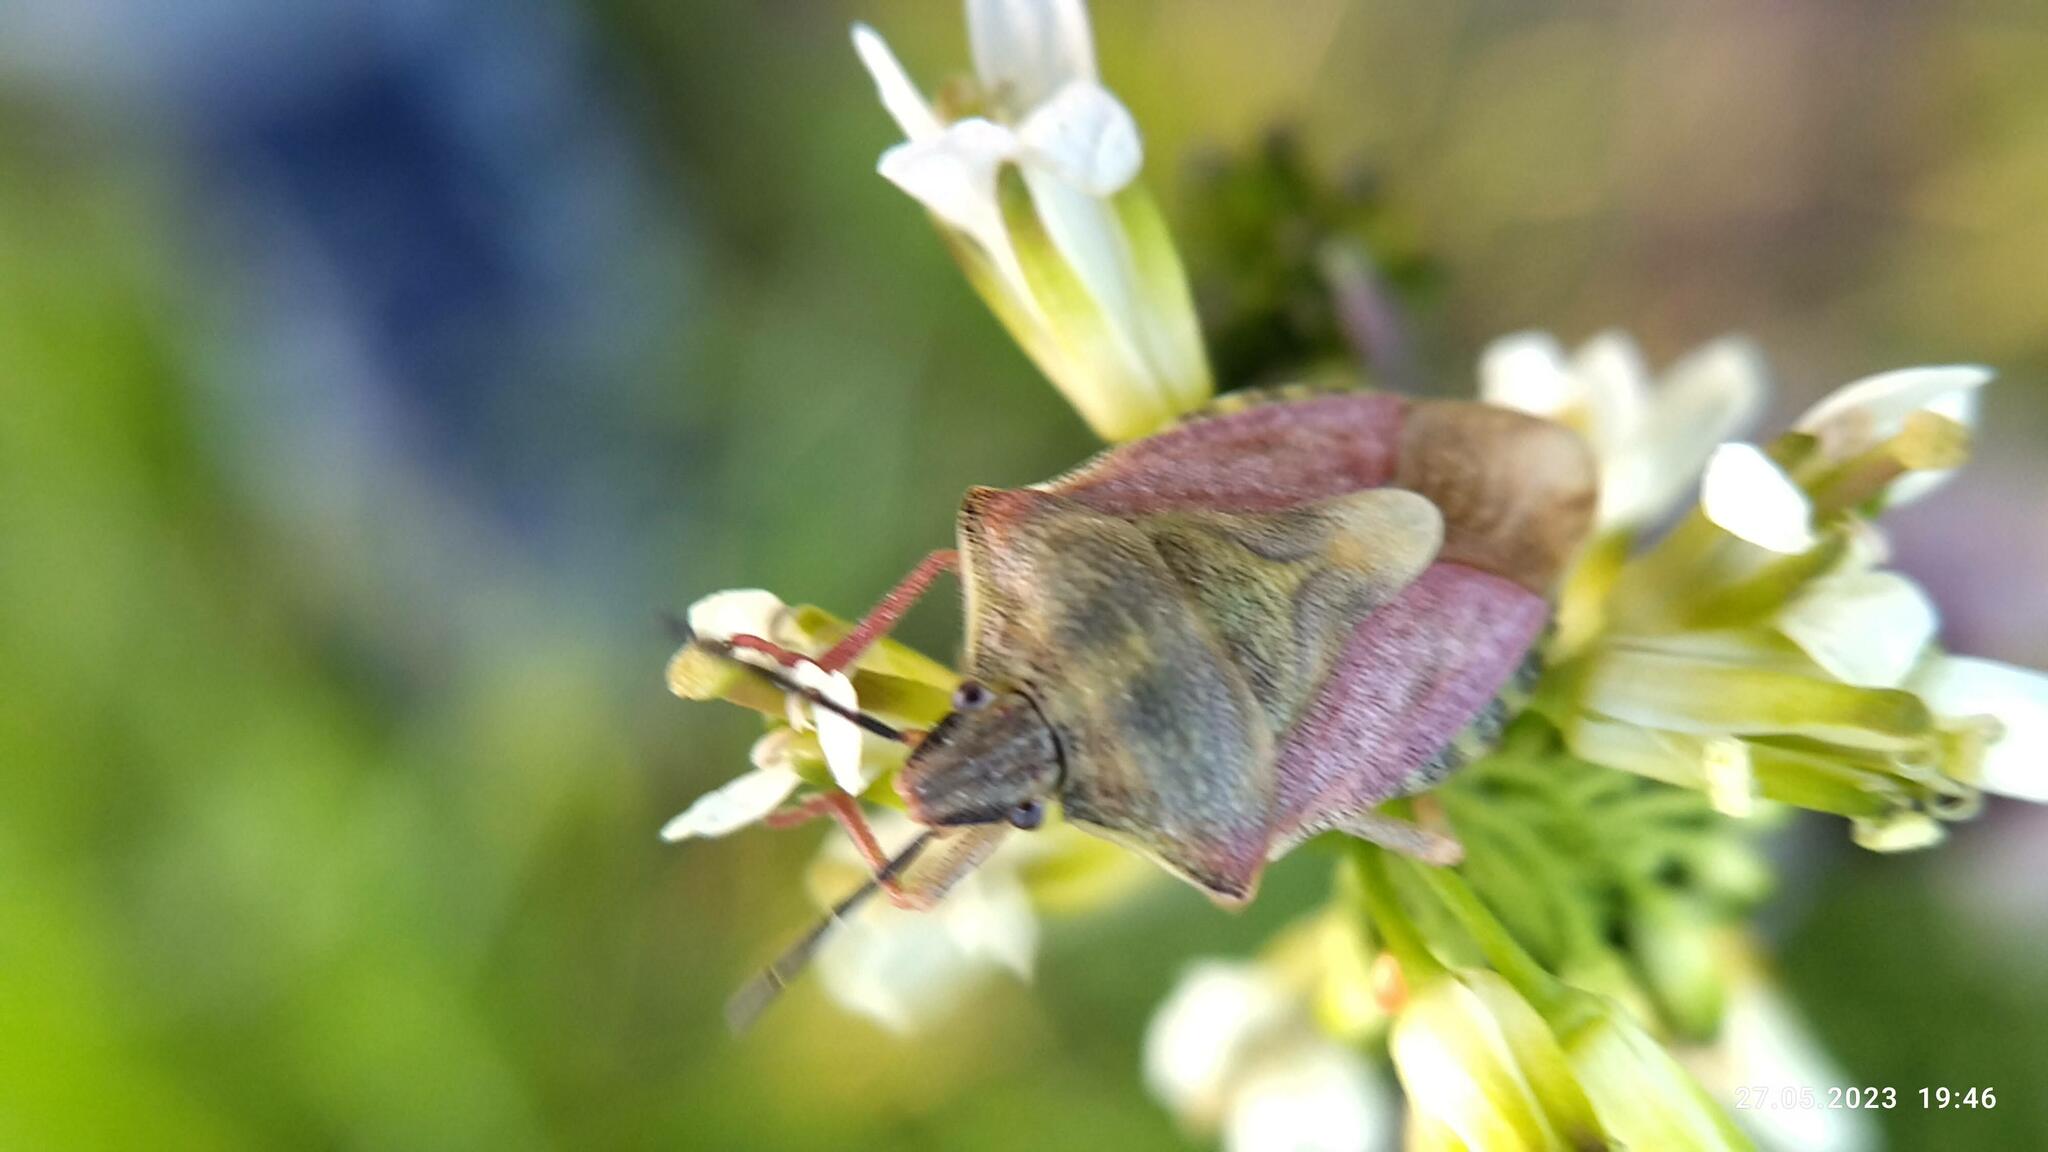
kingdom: Animalia
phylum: Arthropoda
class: Insecta
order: Hemiptera
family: Pentatomidae
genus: Carpocoris
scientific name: Carpocoris purpureipennis
